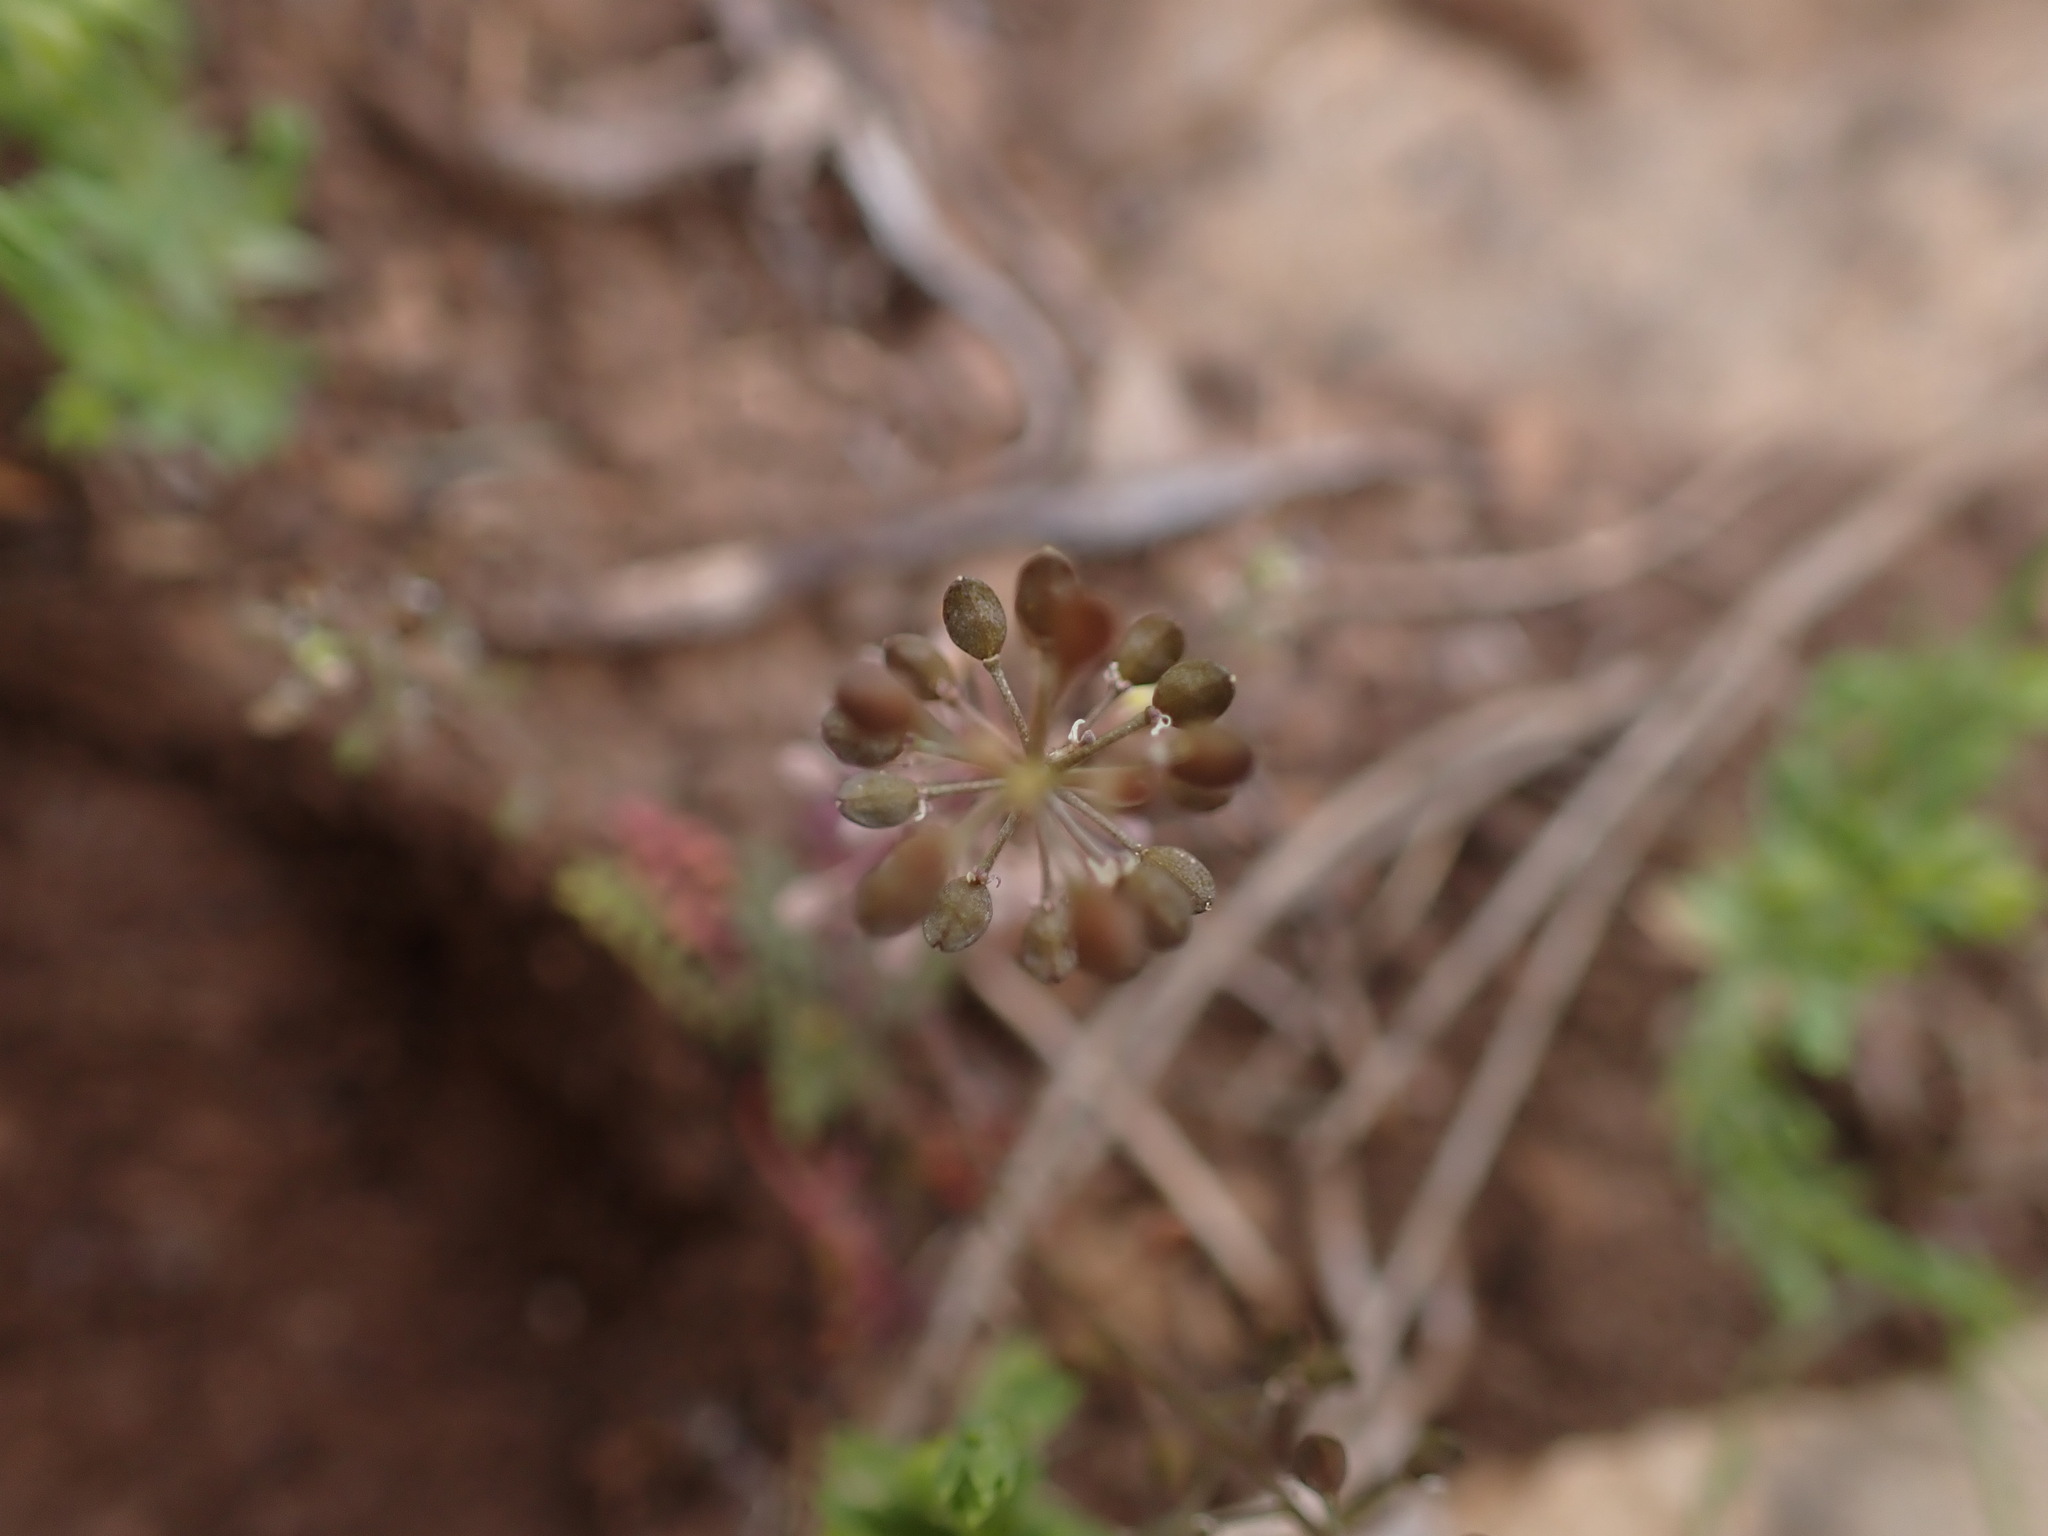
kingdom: Plantae
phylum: Tracheophyta
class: Magnoliopsida
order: Brassicales
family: Brassicaceae
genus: Hornungia
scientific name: Hornungia petraea
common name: Hutchinsia
